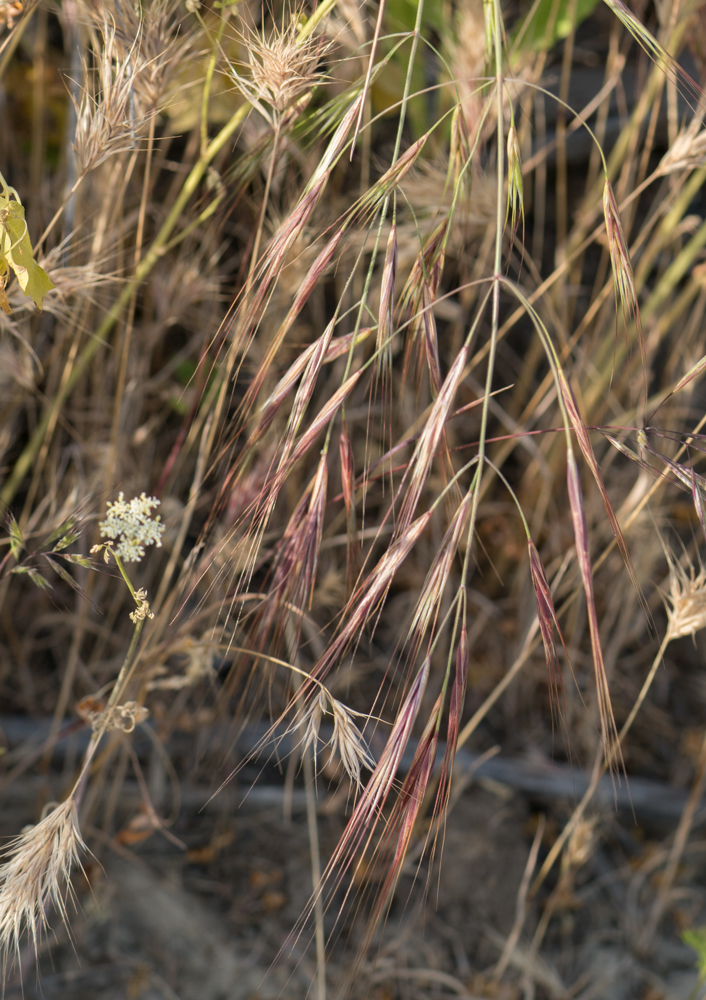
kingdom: Plantae
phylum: Tracheophyta
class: Liliopsida
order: Poales
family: Poaceae
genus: Bromus
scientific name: Bromus diandrus
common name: Ripgut brome
